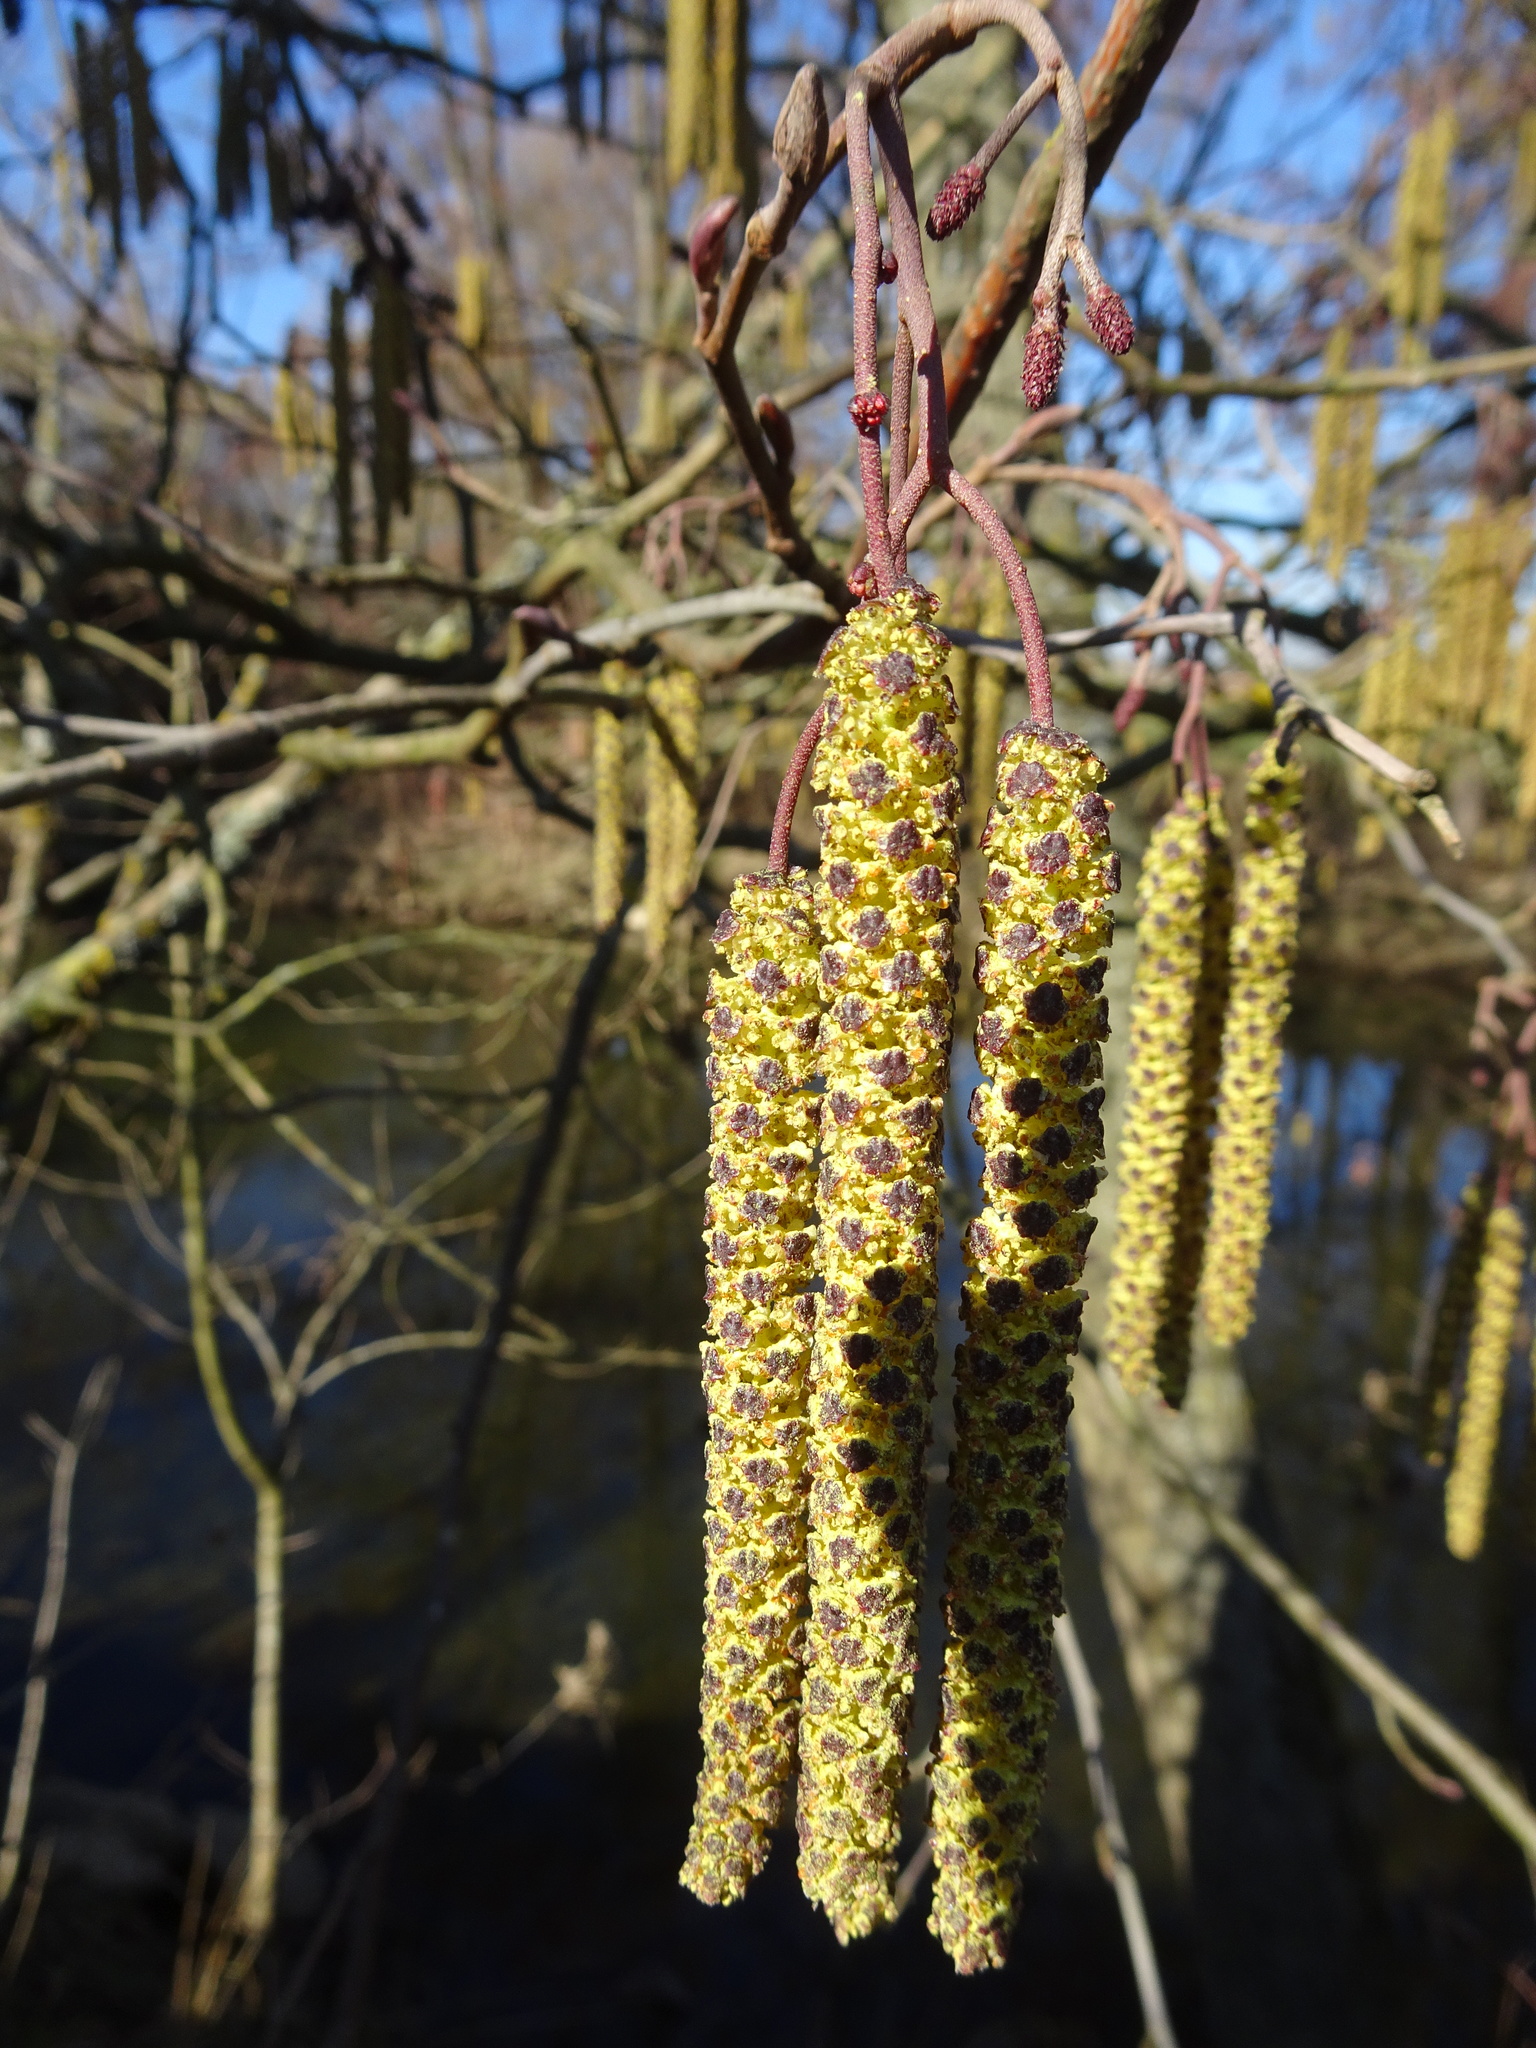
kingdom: Plantae
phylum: Tracheophyta
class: Magnoliopsida
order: Fagales
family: Betulaceae
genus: Alnus
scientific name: Alnus glutinosa
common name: Black alder
